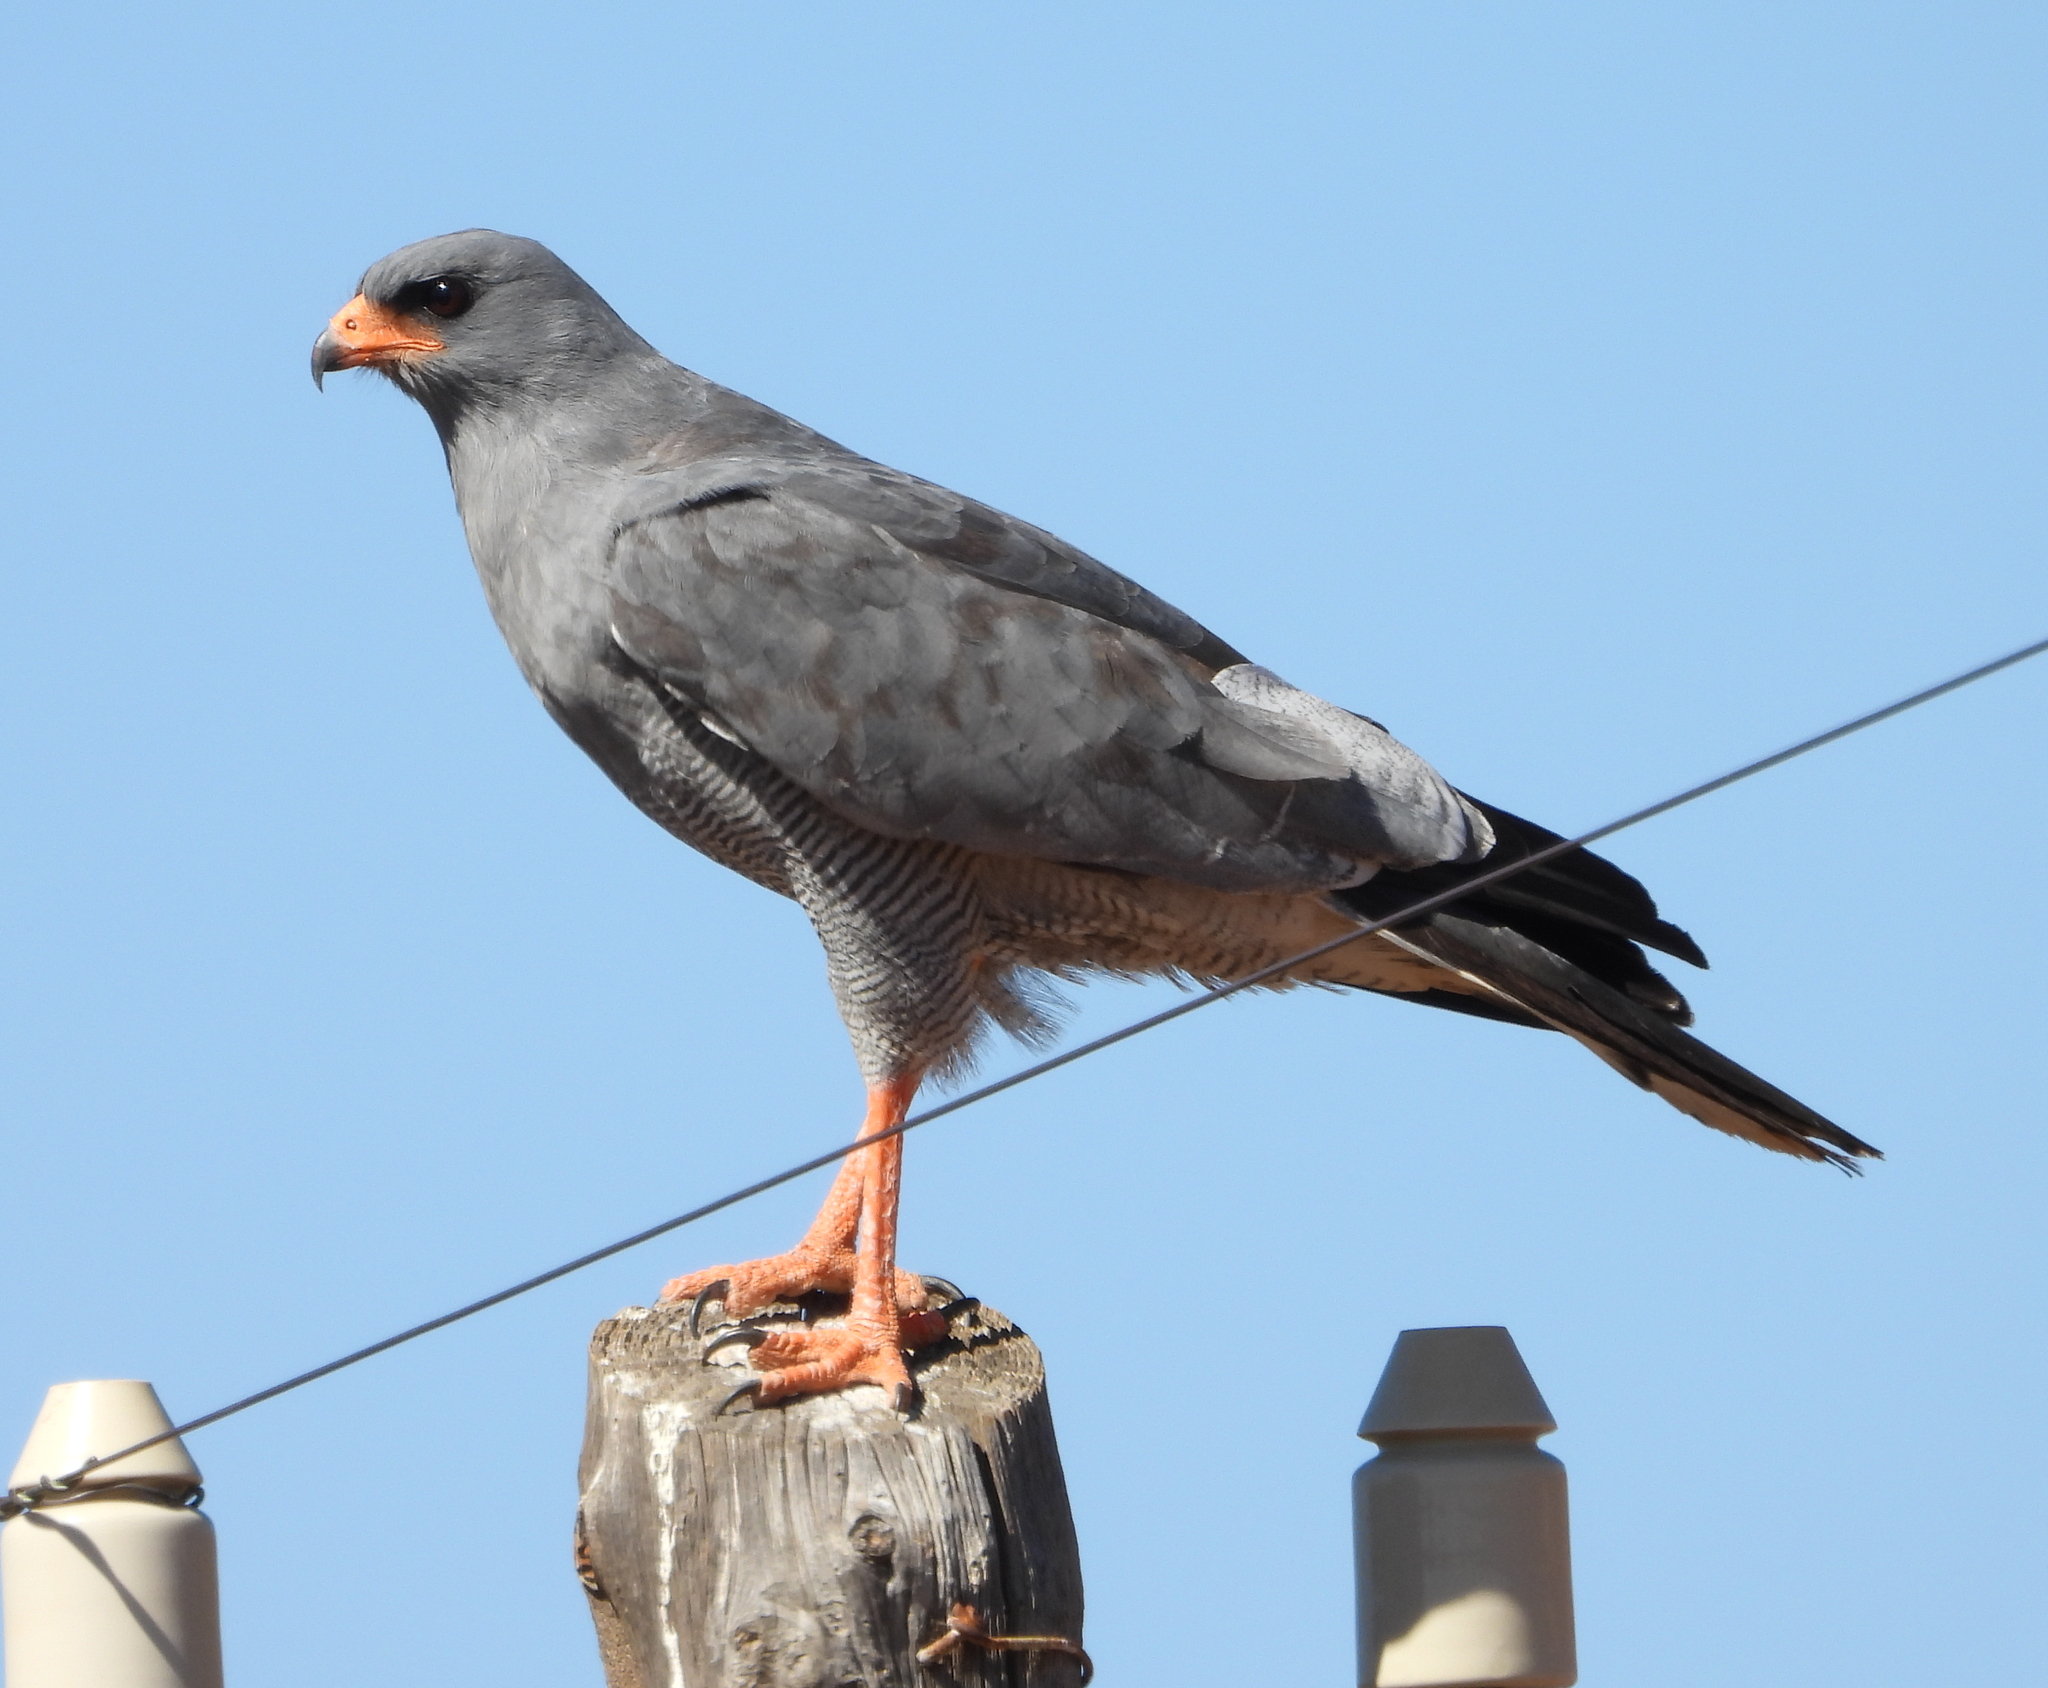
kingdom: Animalia
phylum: Chordata
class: Aves
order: Accipitriformes
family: Accipitridae
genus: Melierax
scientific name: Melierax canorus
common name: Pale chanting-goshawk
